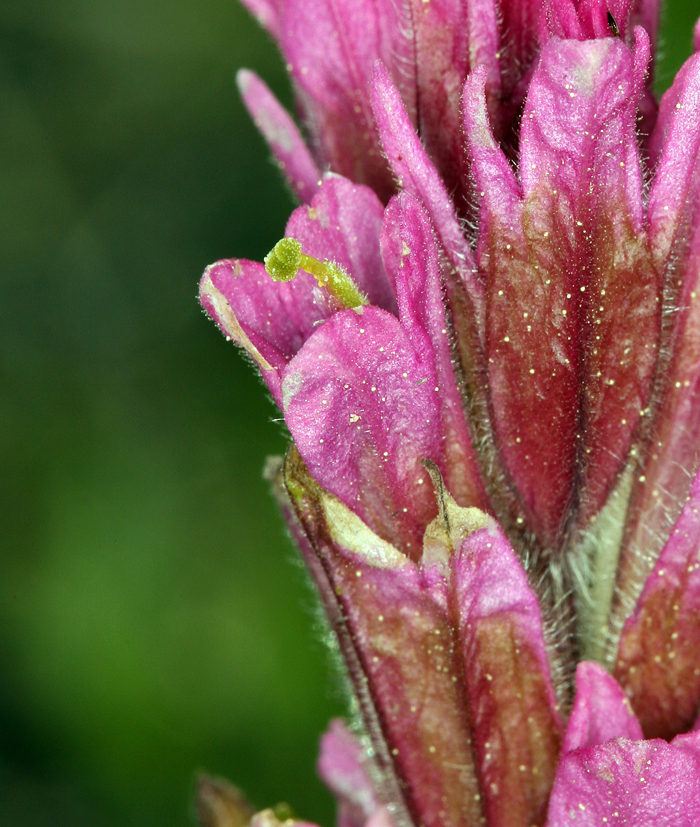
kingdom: Plantae
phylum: Tracheophyta
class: Magnoliopsida
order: Lamiales
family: Orobanchaceae
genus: Castilleja
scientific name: Castilleja lemmonii
